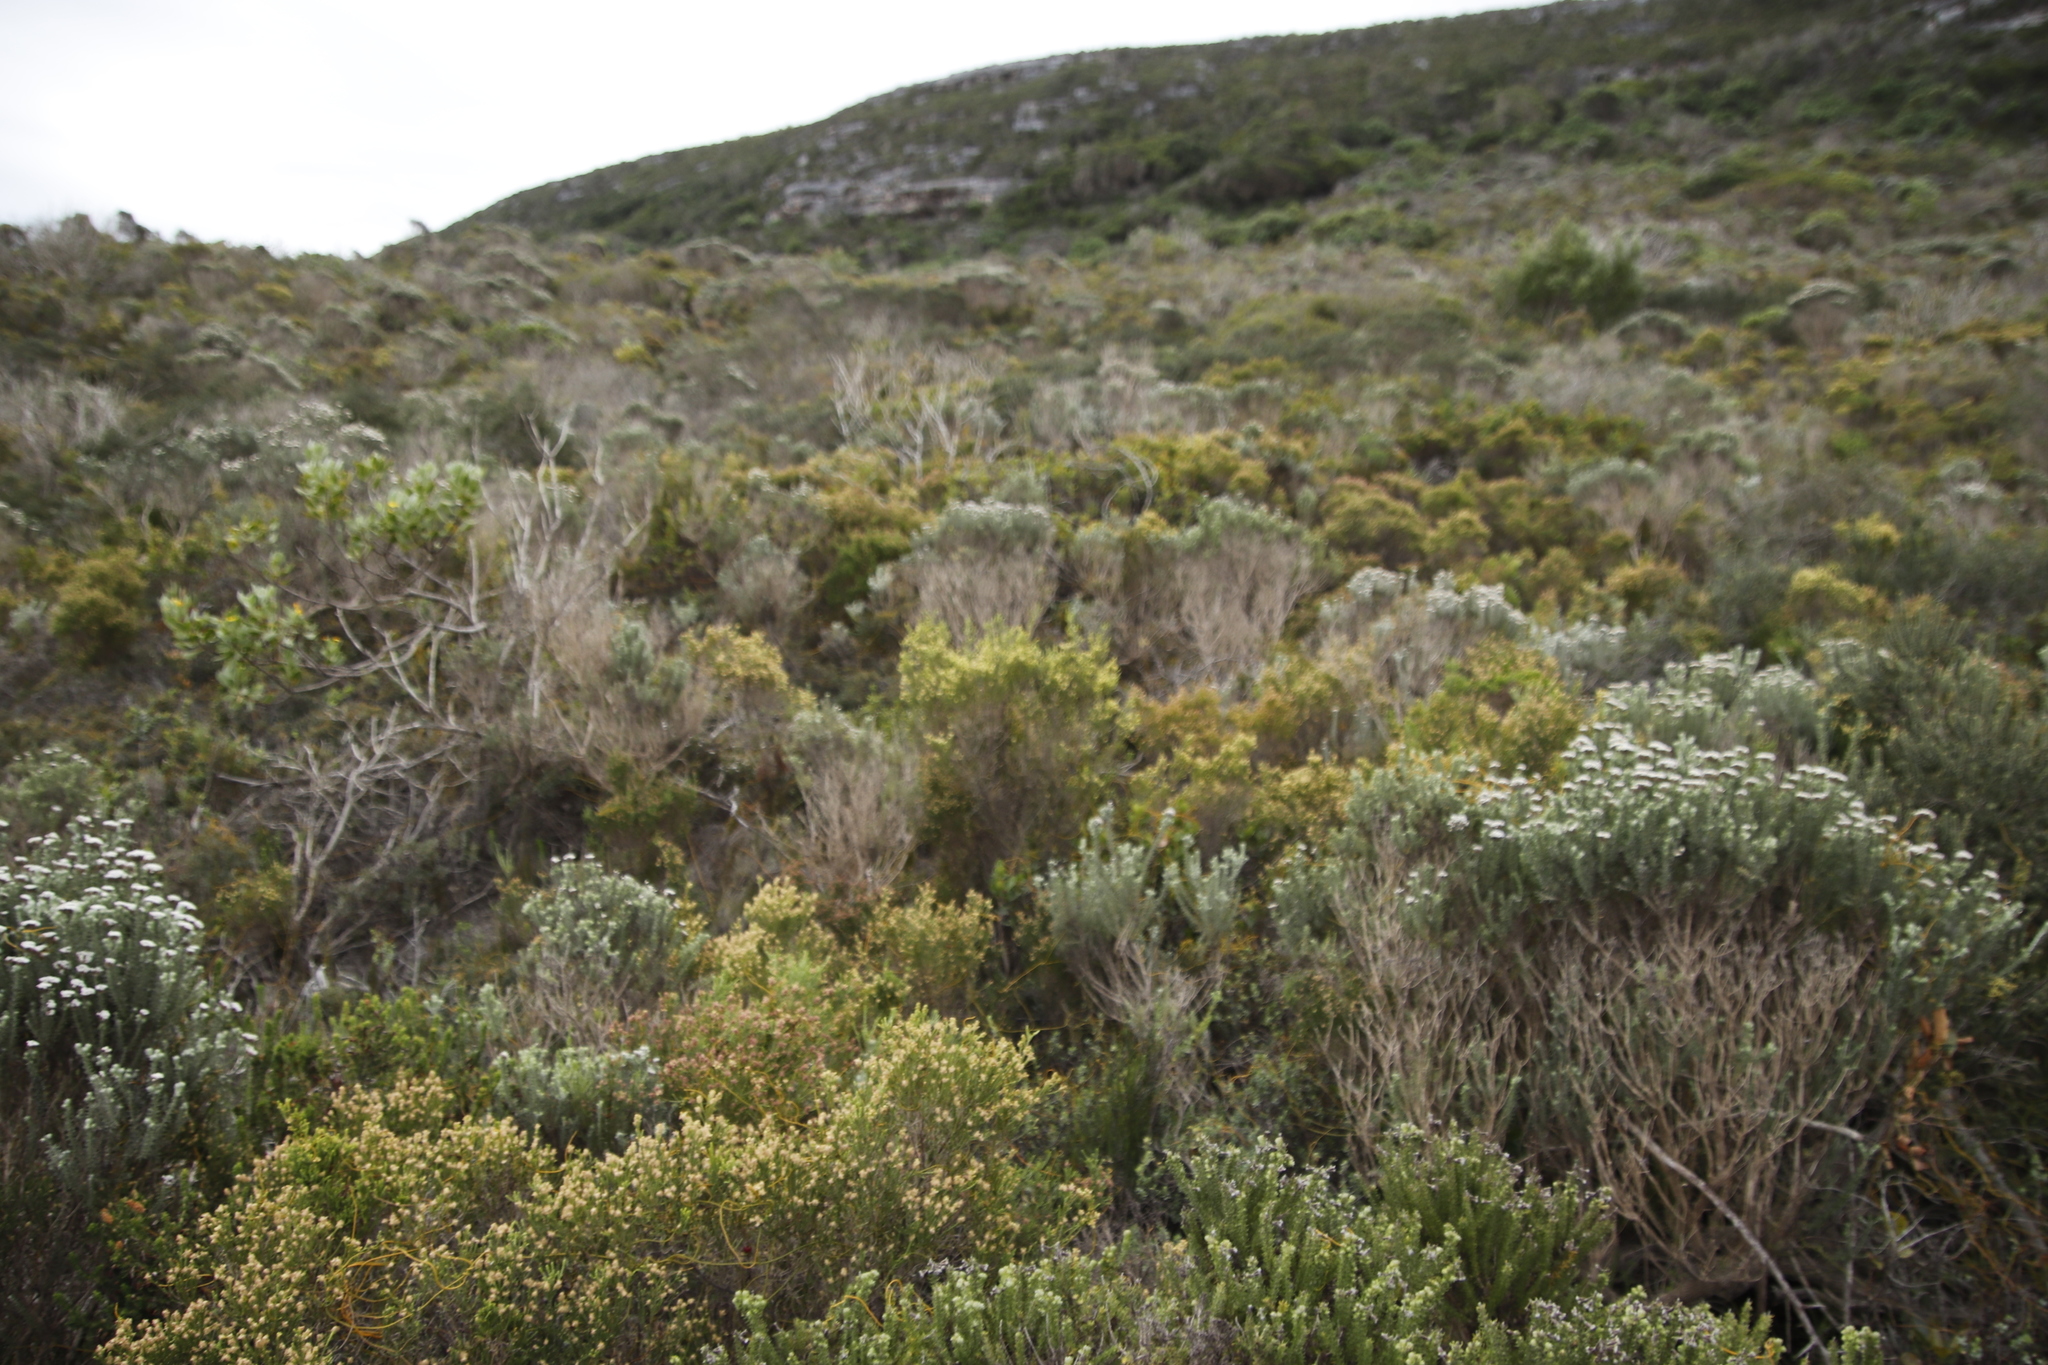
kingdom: Plantae
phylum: Tracheophyta
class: Magnoliopsida
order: Malvales
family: Thymelaeaceae
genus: Passerina
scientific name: Passerina corymbosa
